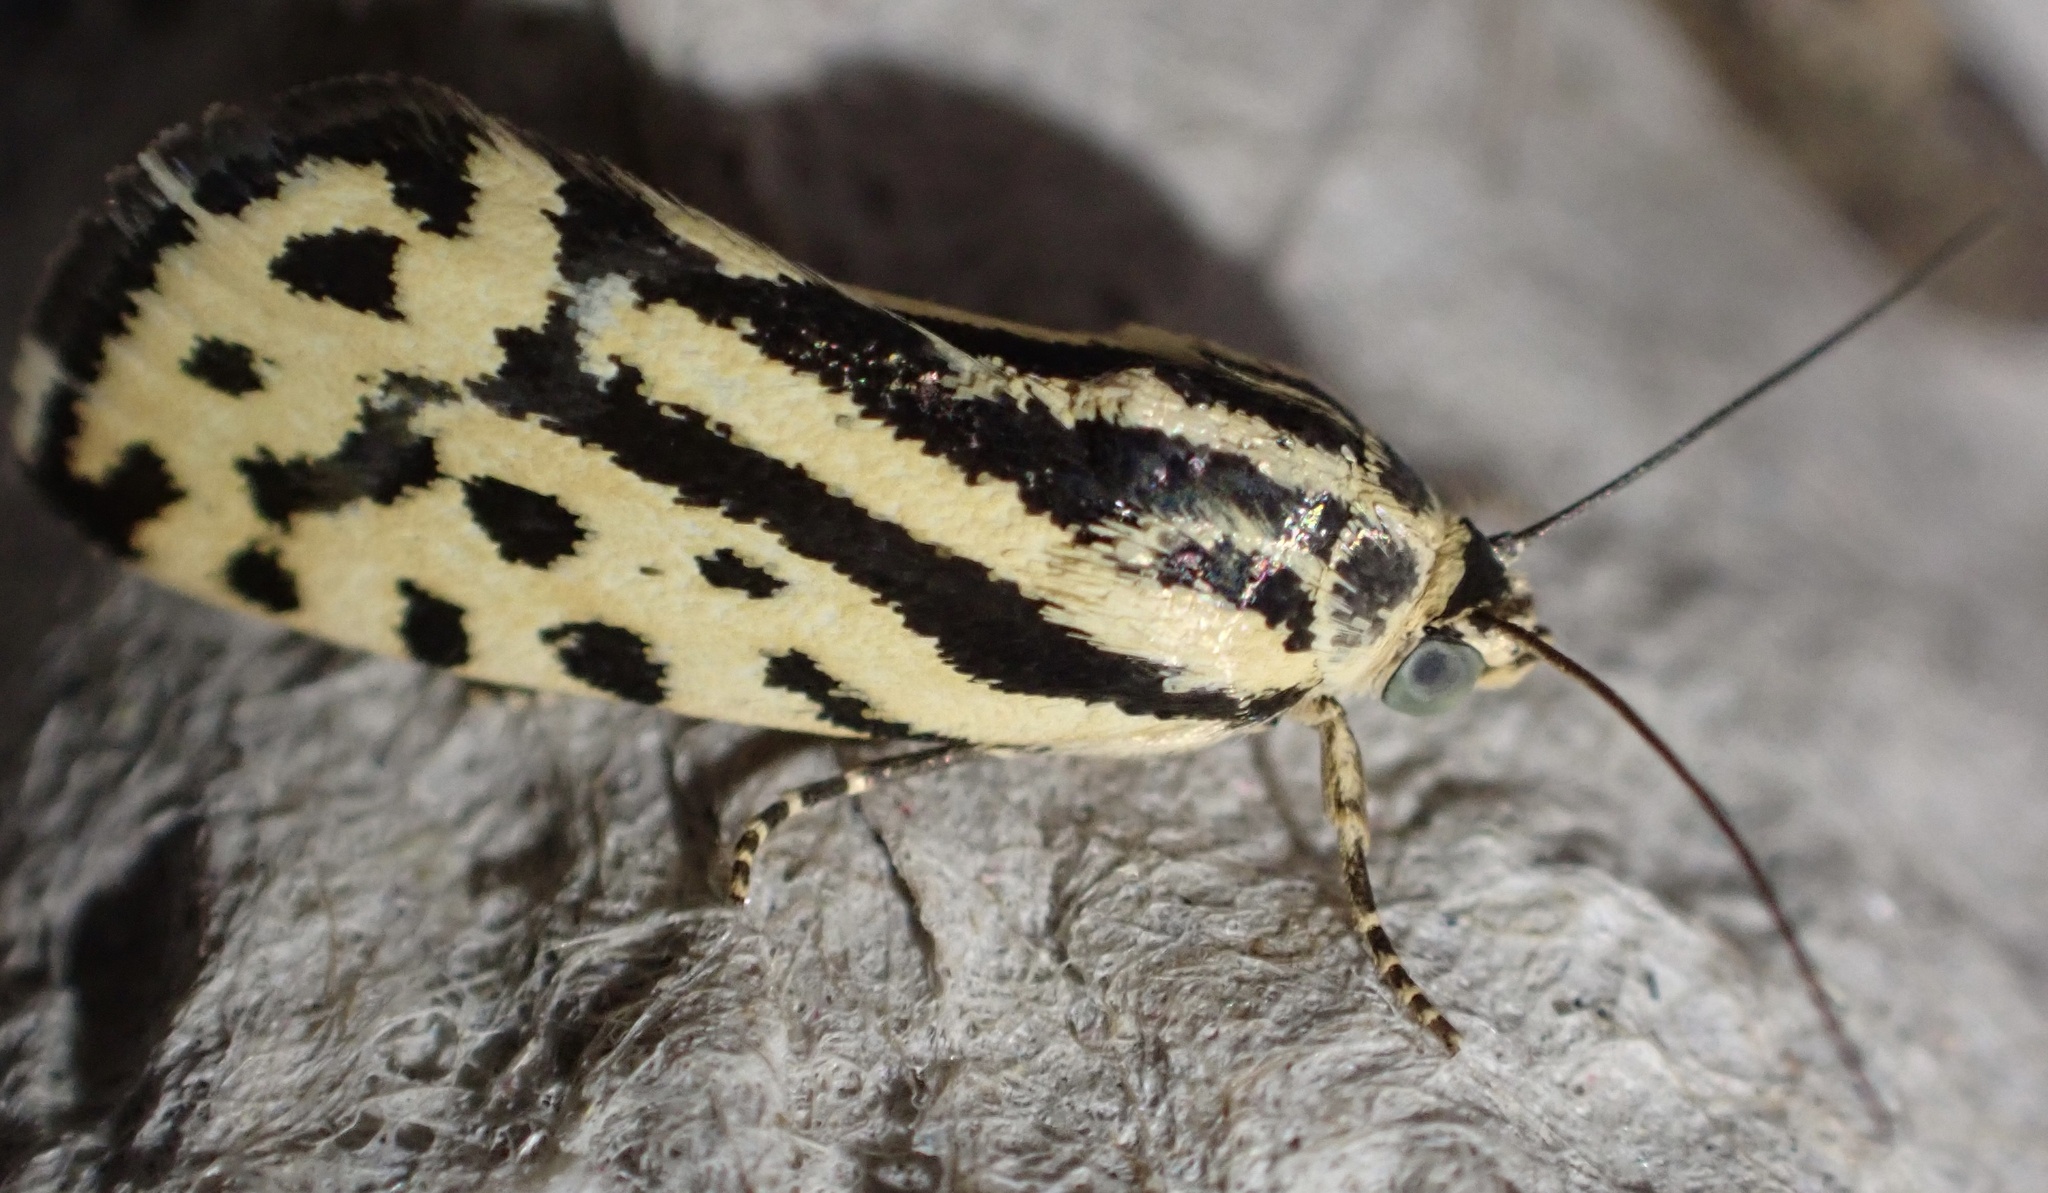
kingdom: Animalia
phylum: Arthropoda
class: Insecta
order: Lepidoptera
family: Noctuidae
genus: Acontia
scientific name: Acontia trabealis
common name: Spotted sulphur
